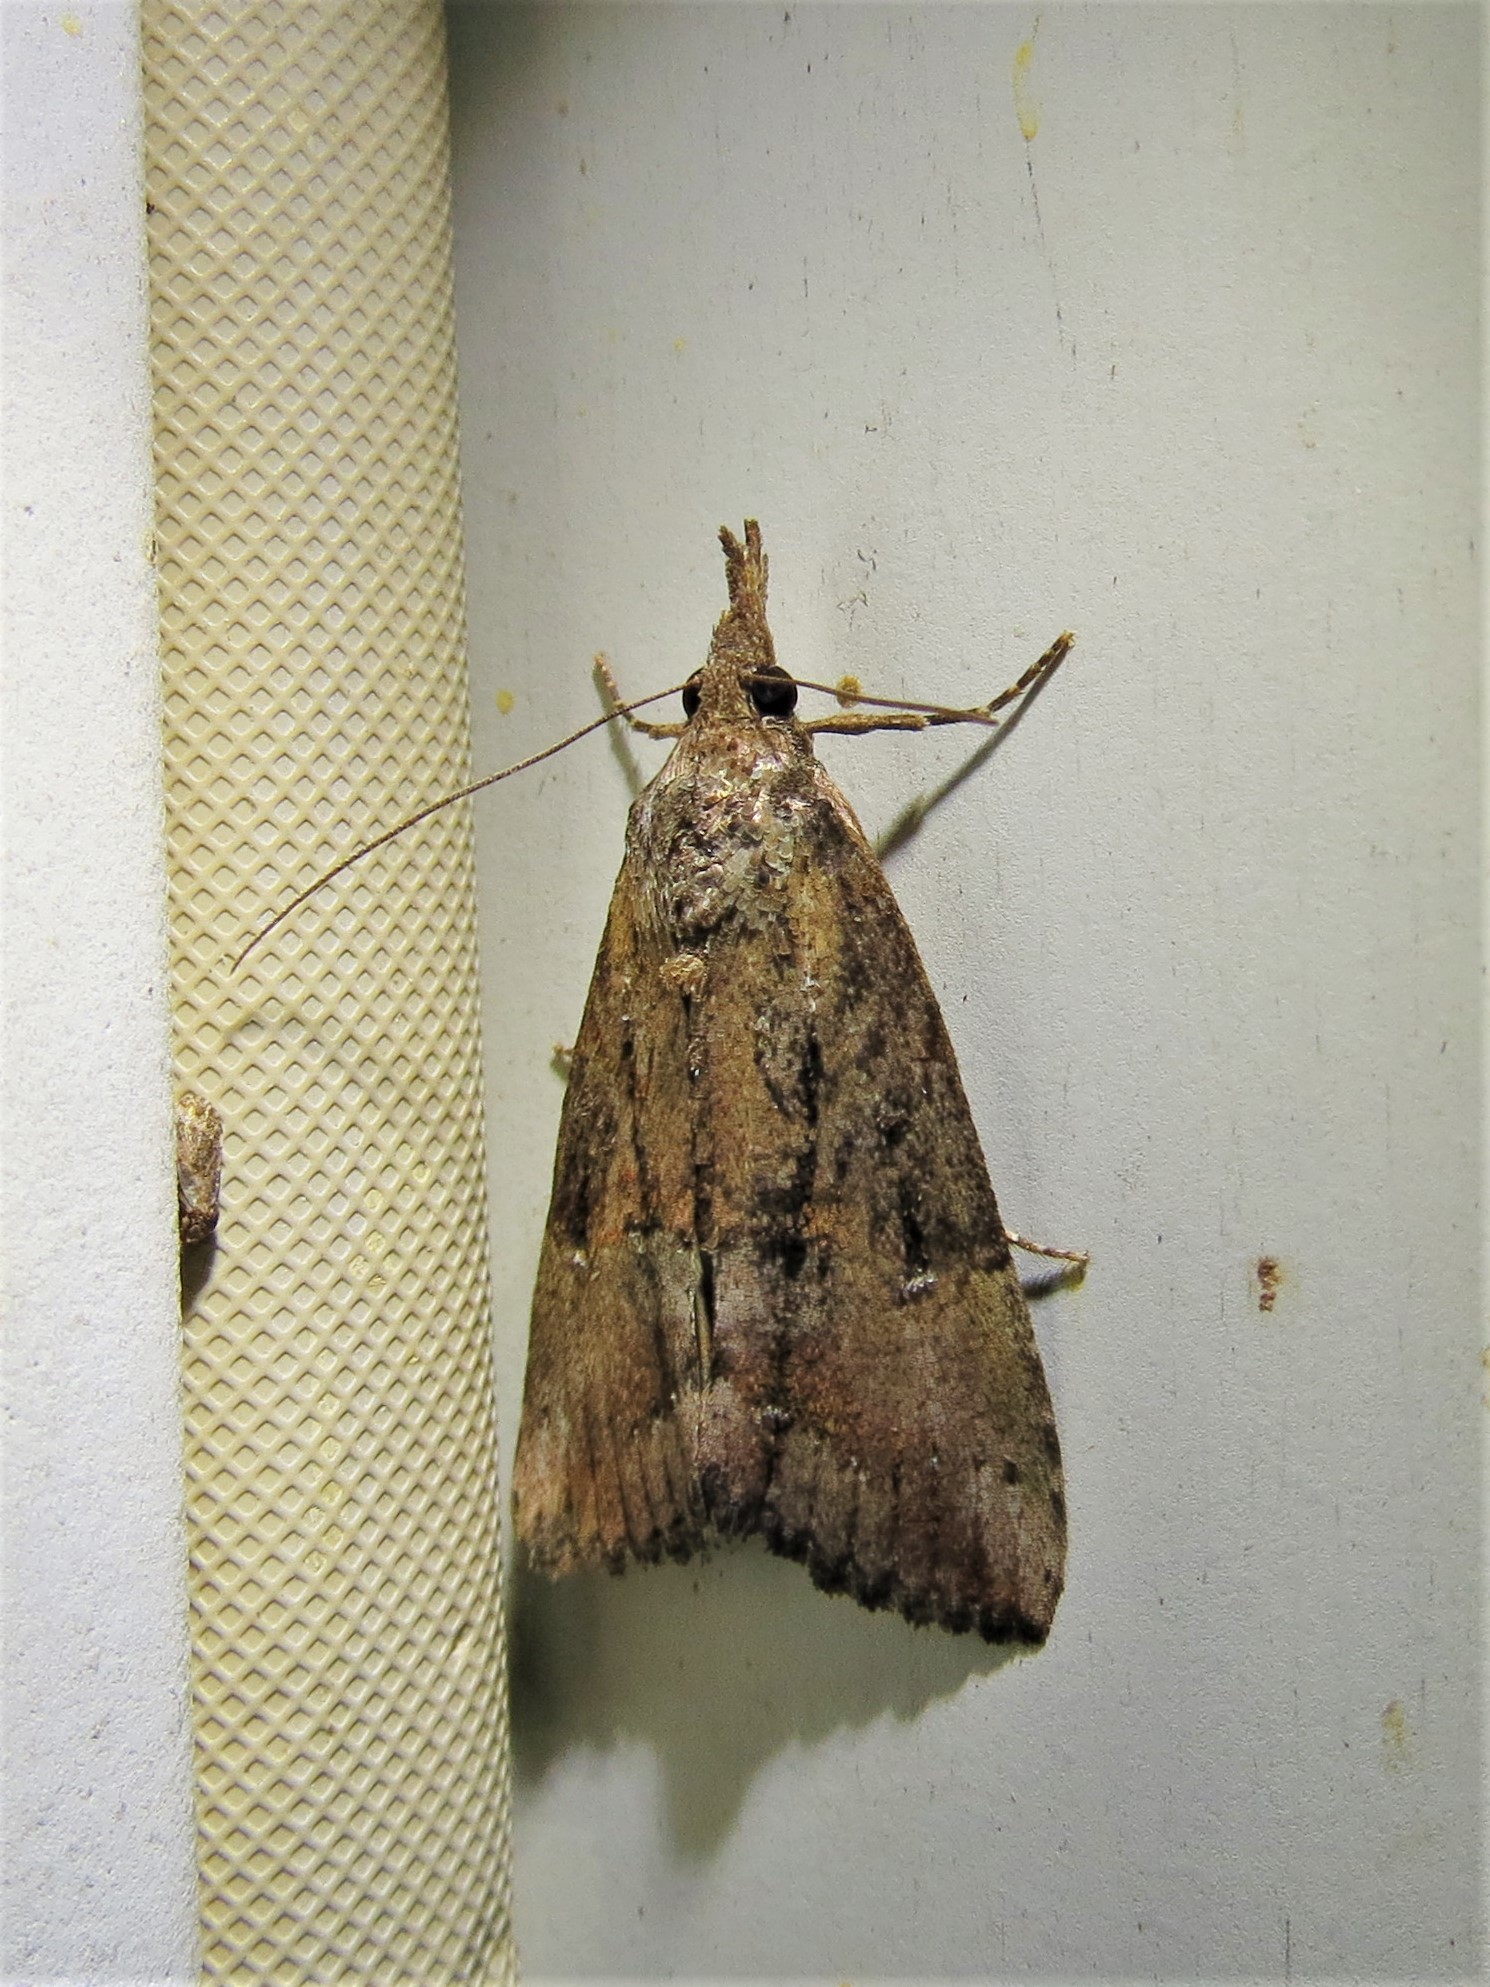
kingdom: Animalia
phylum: Arthropoda
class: Insecta
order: Lepidoptera
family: Erebidae
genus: Hypena
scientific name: Hypena scabra
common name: Green cloverworm
